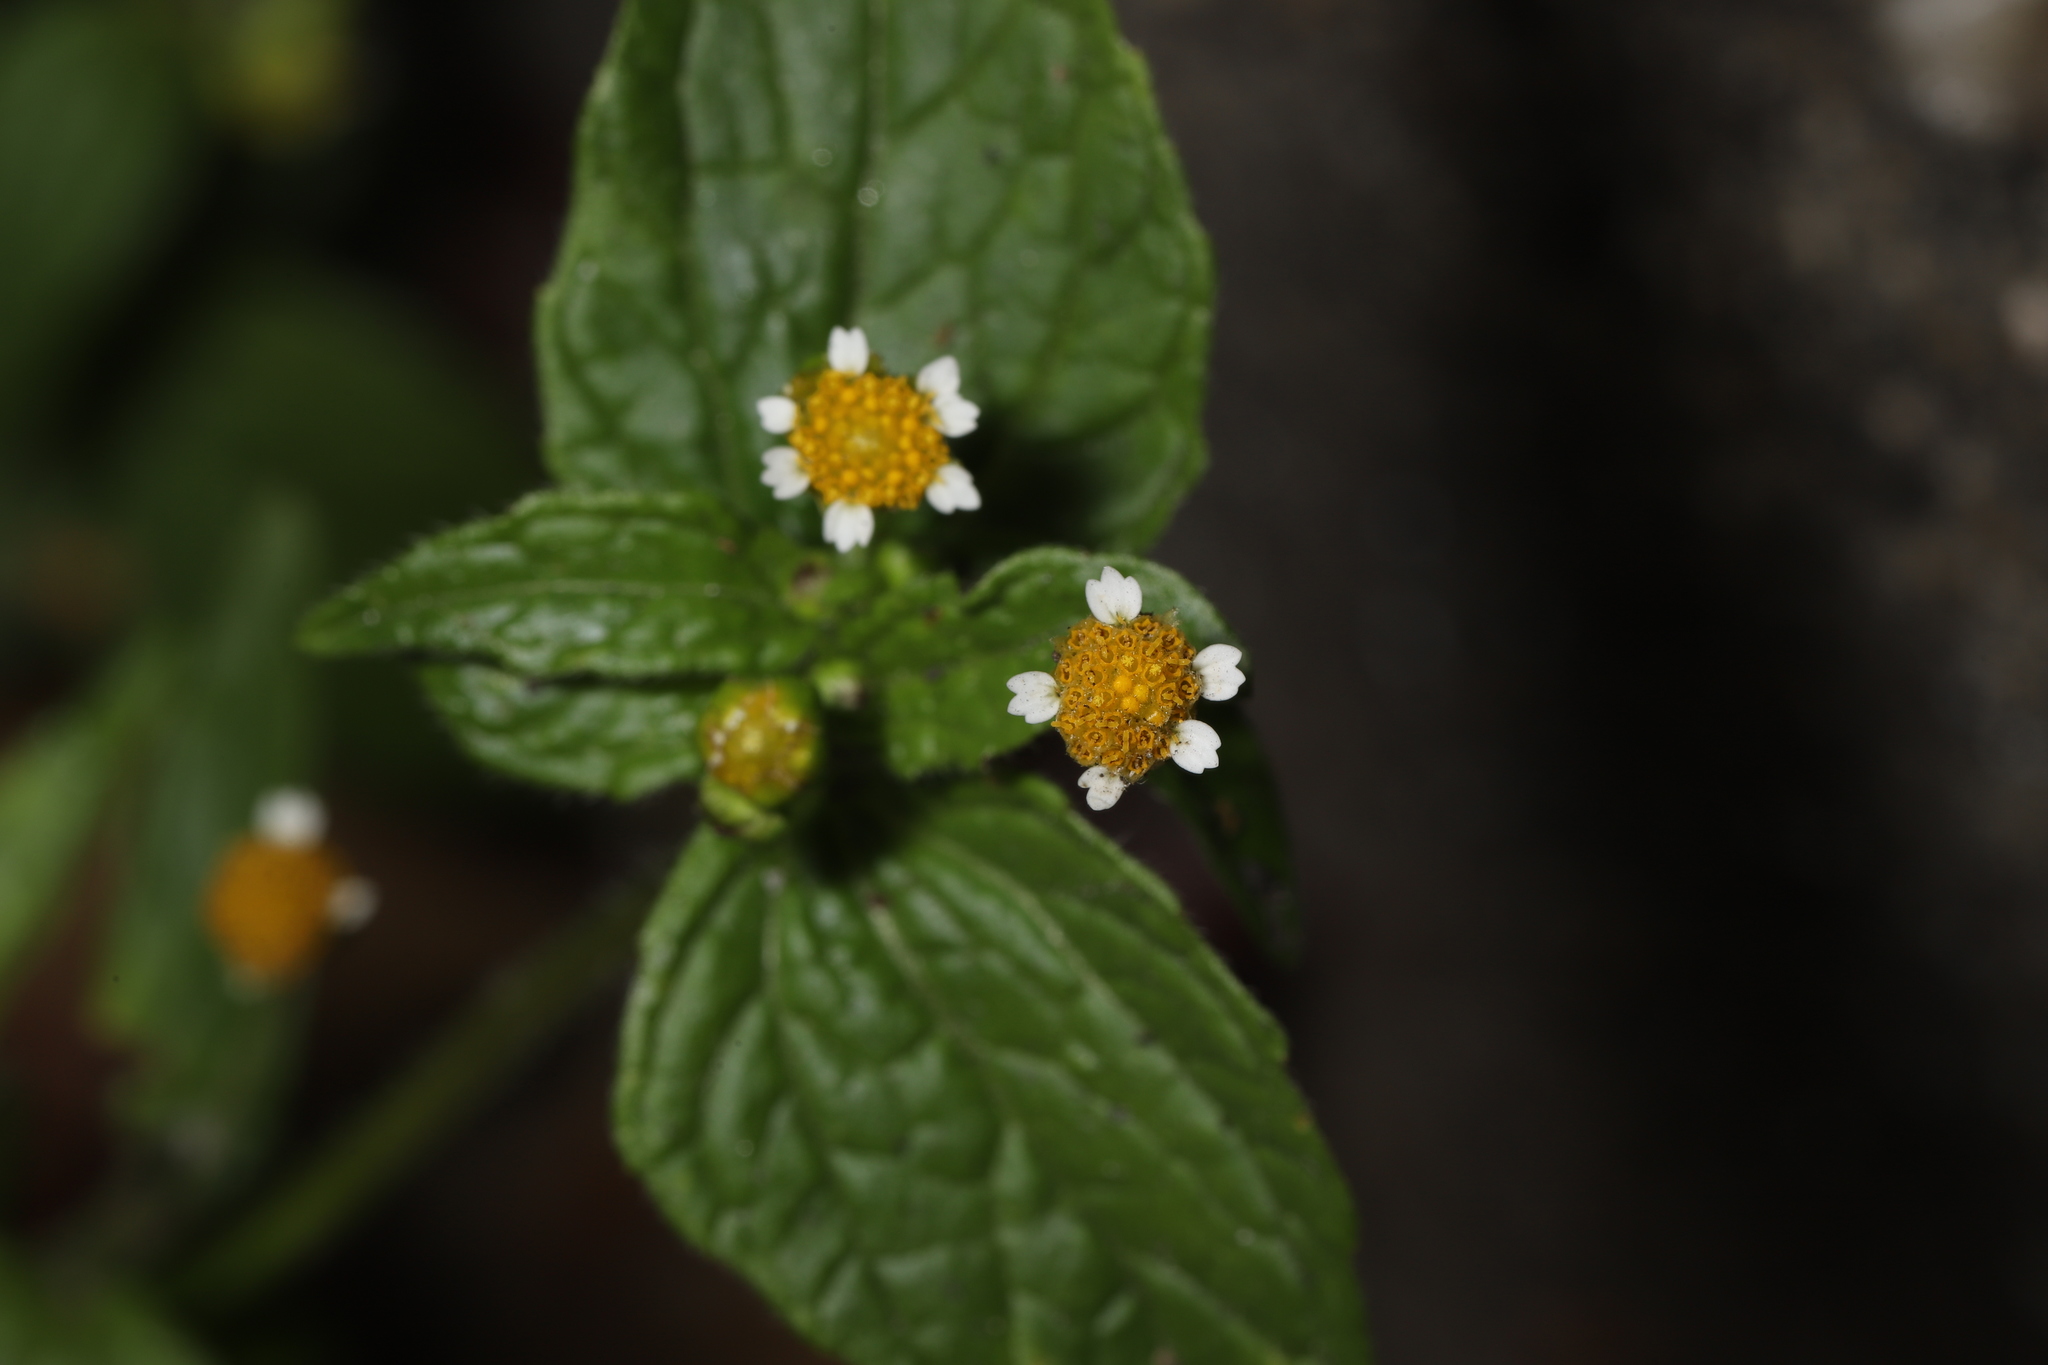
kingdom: Plantae
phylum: Tracheophyta
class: Magnoliopsida
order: Asterales
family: Asteraceae
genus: Galinsoga
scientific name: Galinsoga parviflora
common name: Gallant soldier
